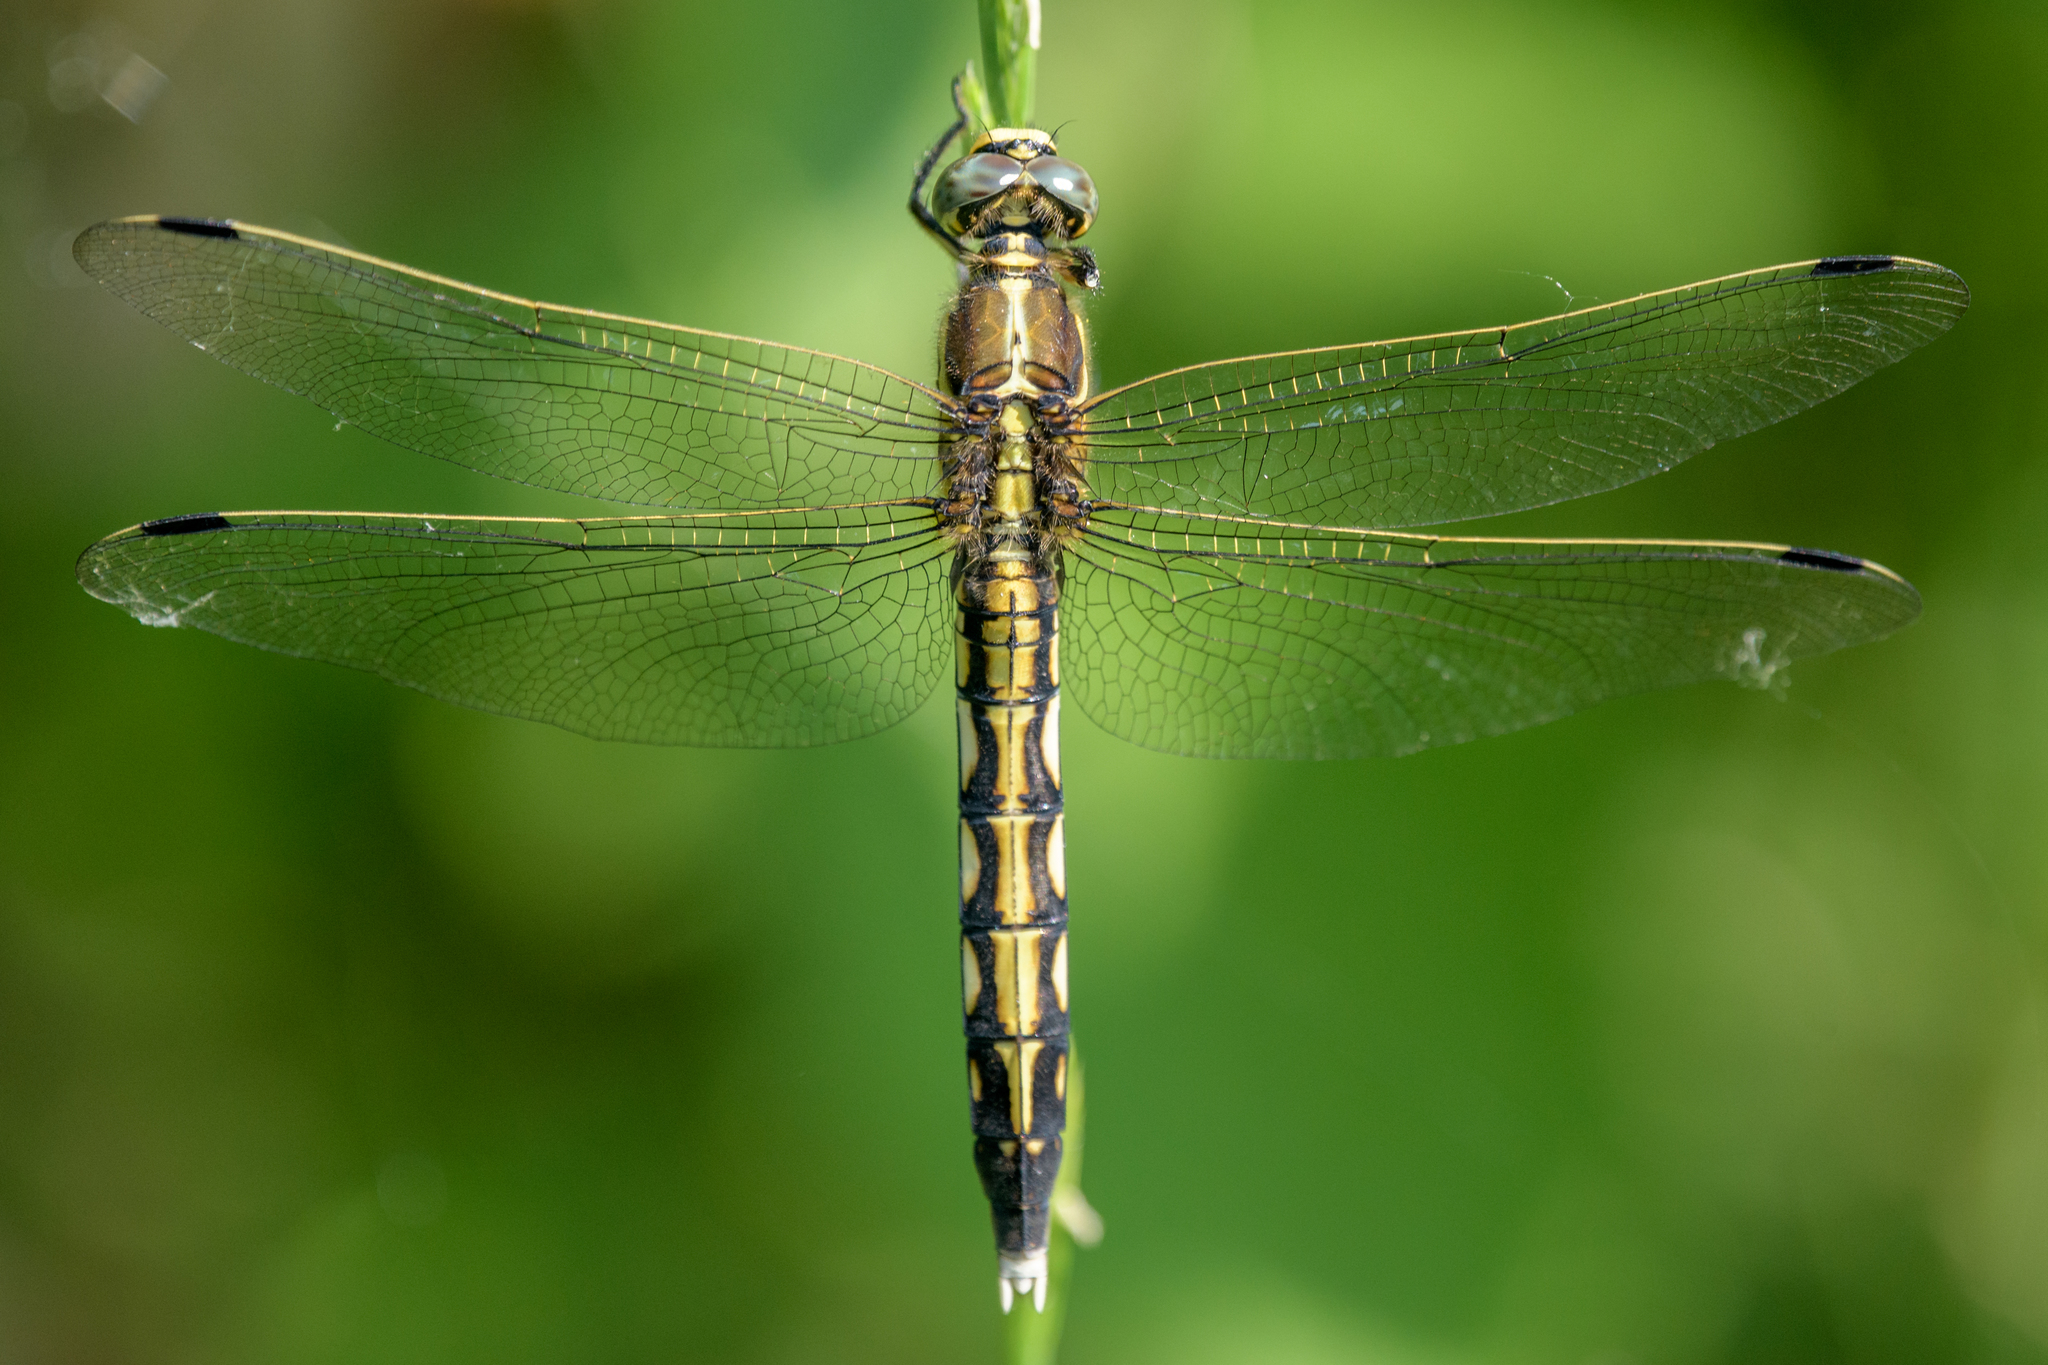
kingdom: Animalia
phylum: Arthropoda
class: Insecta
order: Odonata
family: Libellulidae
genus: Orthetrum
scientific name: Orthetrum albistylum
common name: White-tailed skimmer
